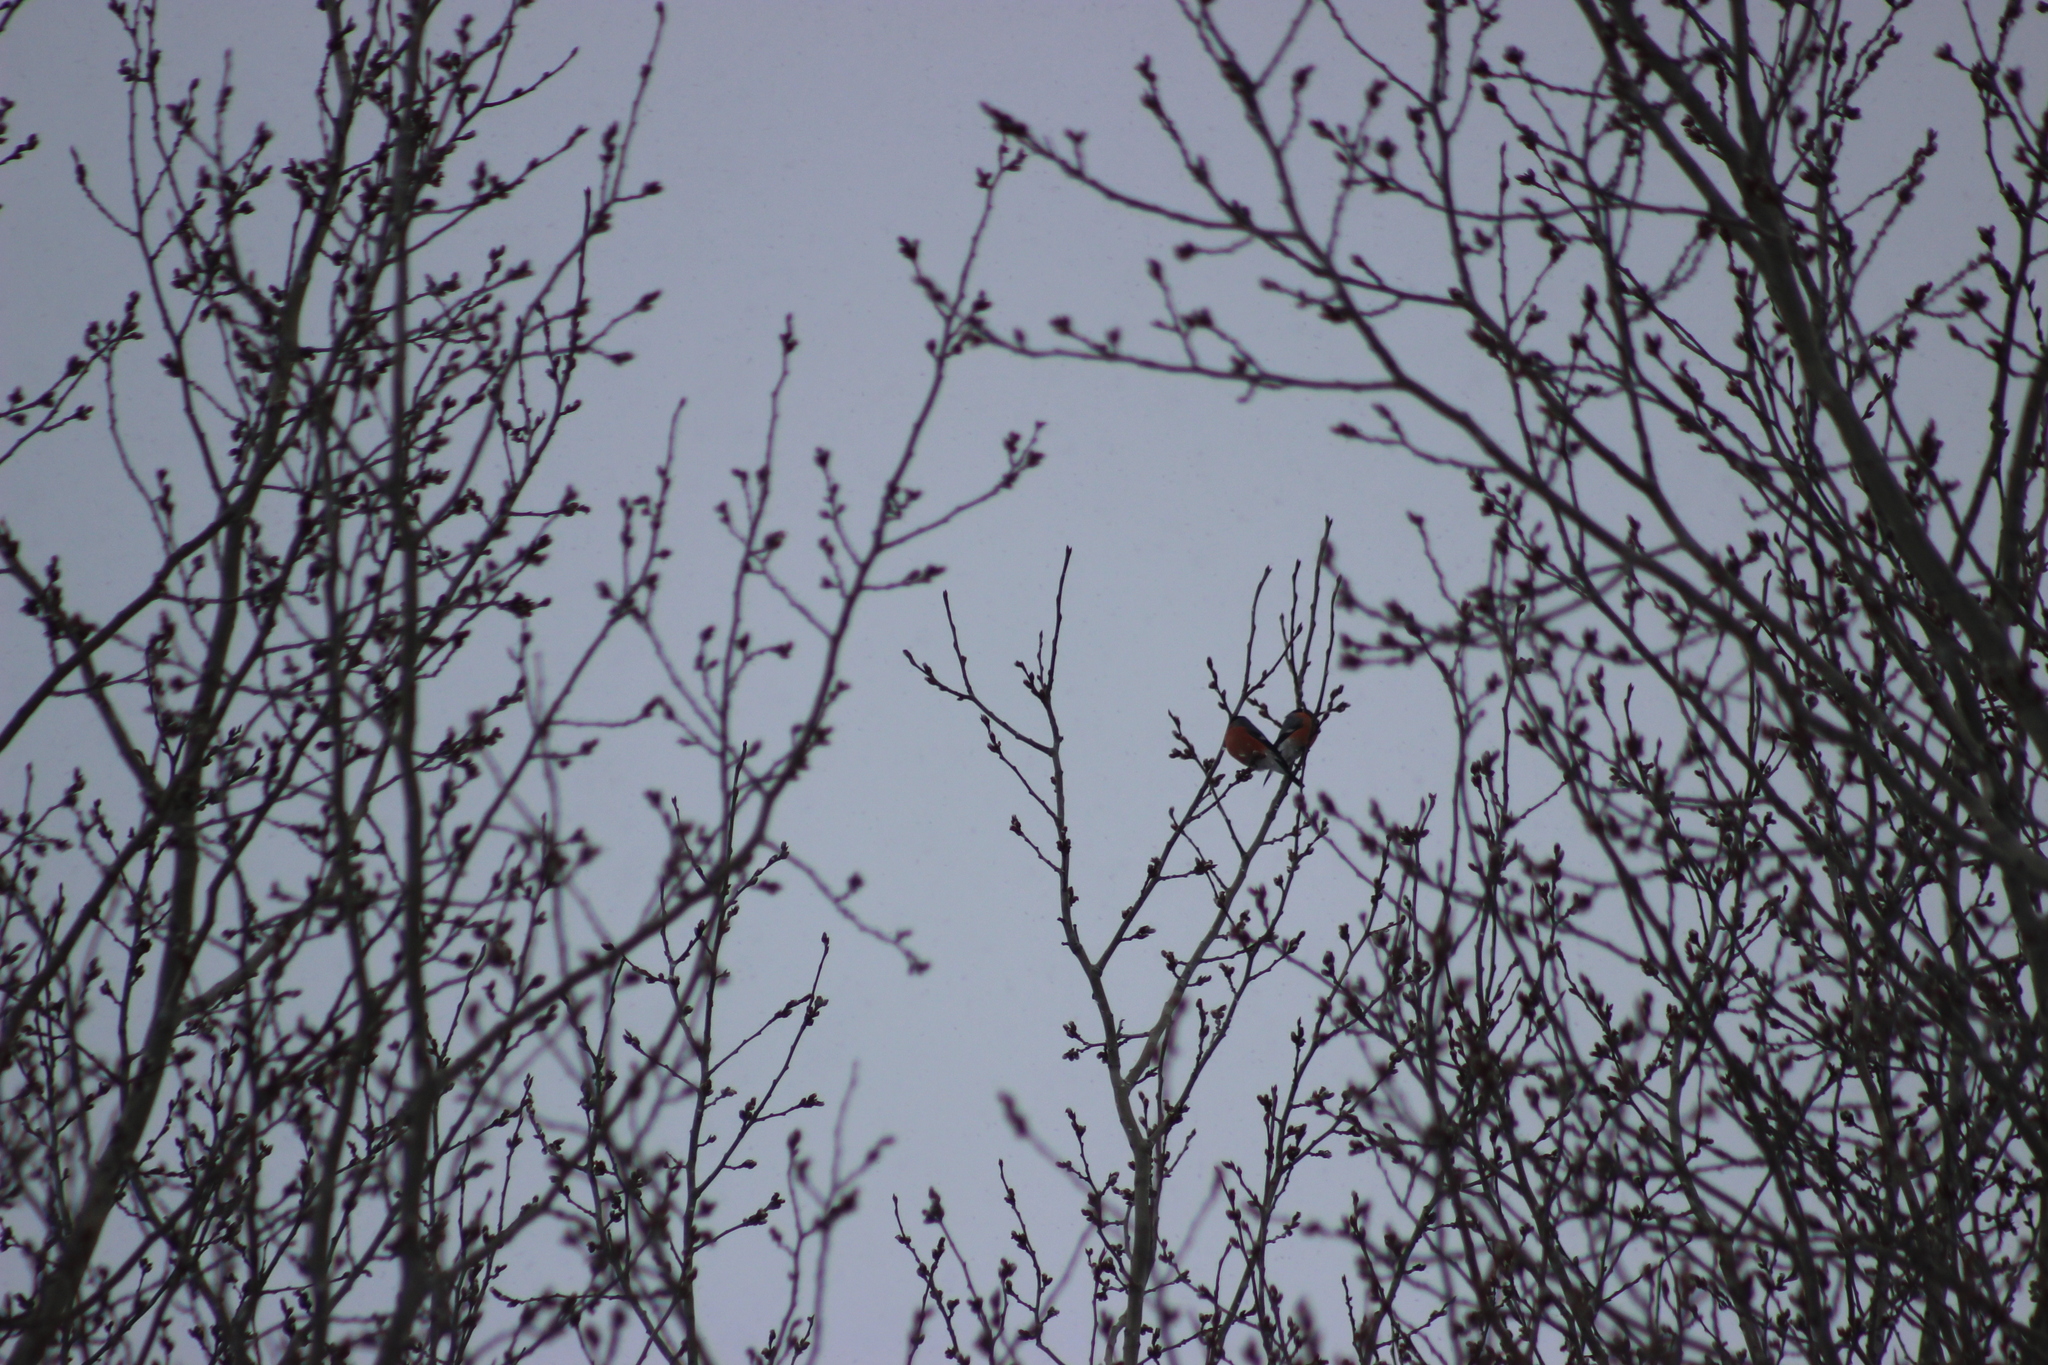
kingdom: Animalia
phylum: Chordata
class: Aves
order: Passeriformes
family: Fringillidae
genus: Pyrrhula
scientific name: Pyrrhula pyrrhula
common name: Eurasian bullfinch
